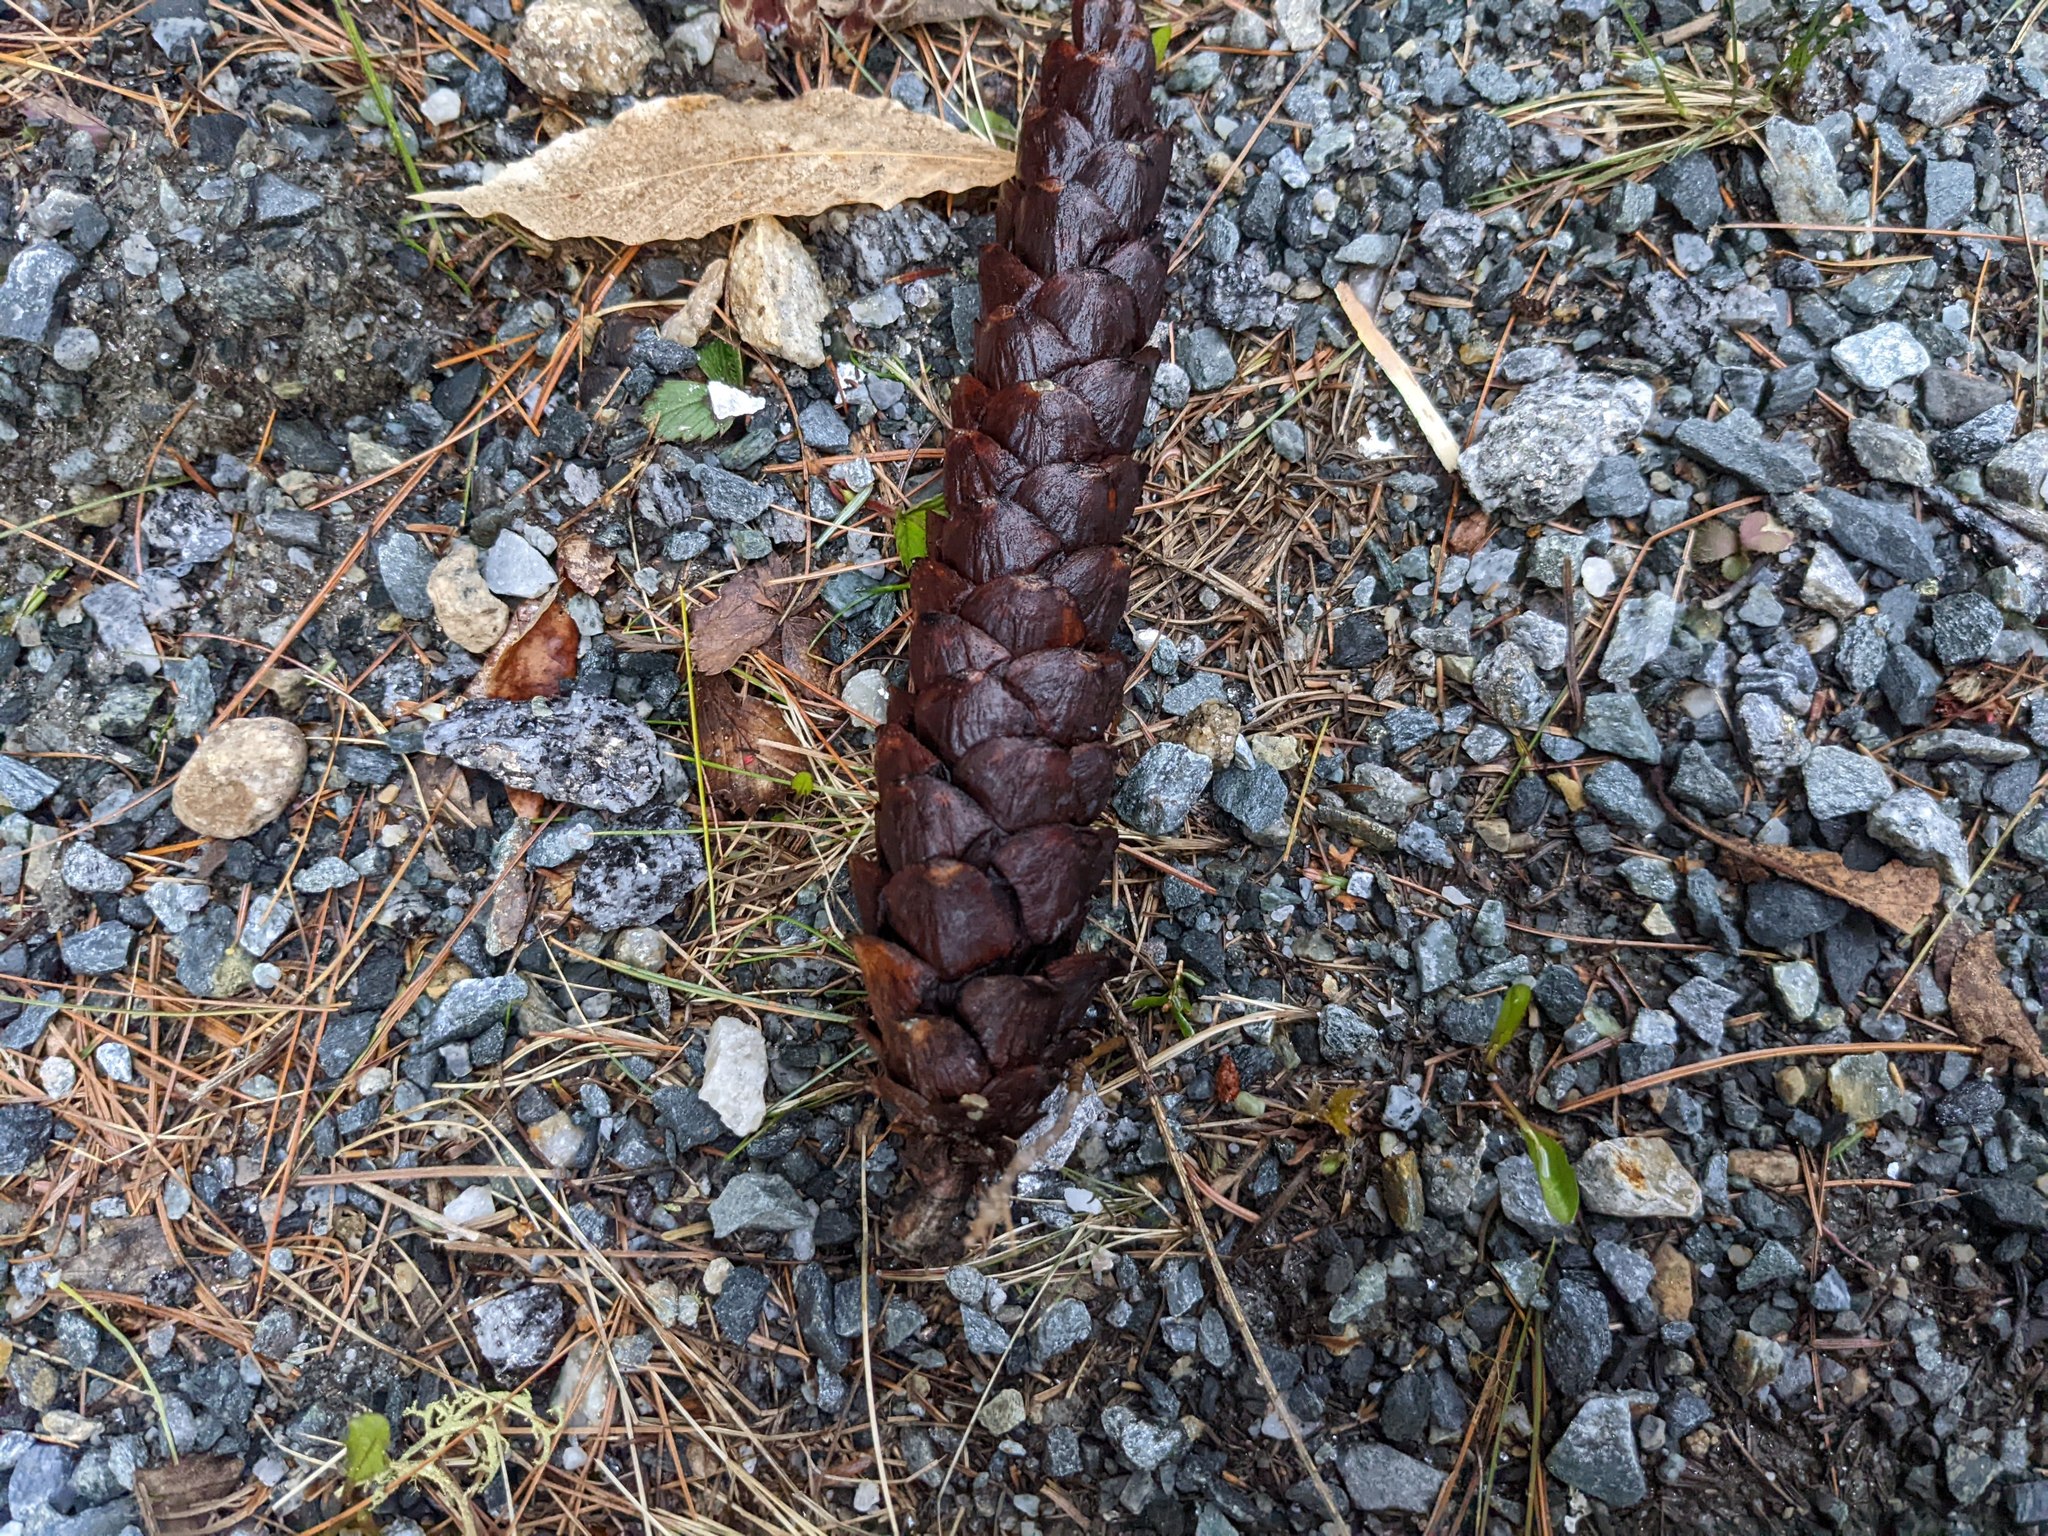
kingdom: Plantae
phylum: Tracheophyta
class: Pinopsida
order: Pinales
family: Pinaceae
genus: Pinus
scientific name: Pinus strobus
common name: Weymouth pine
